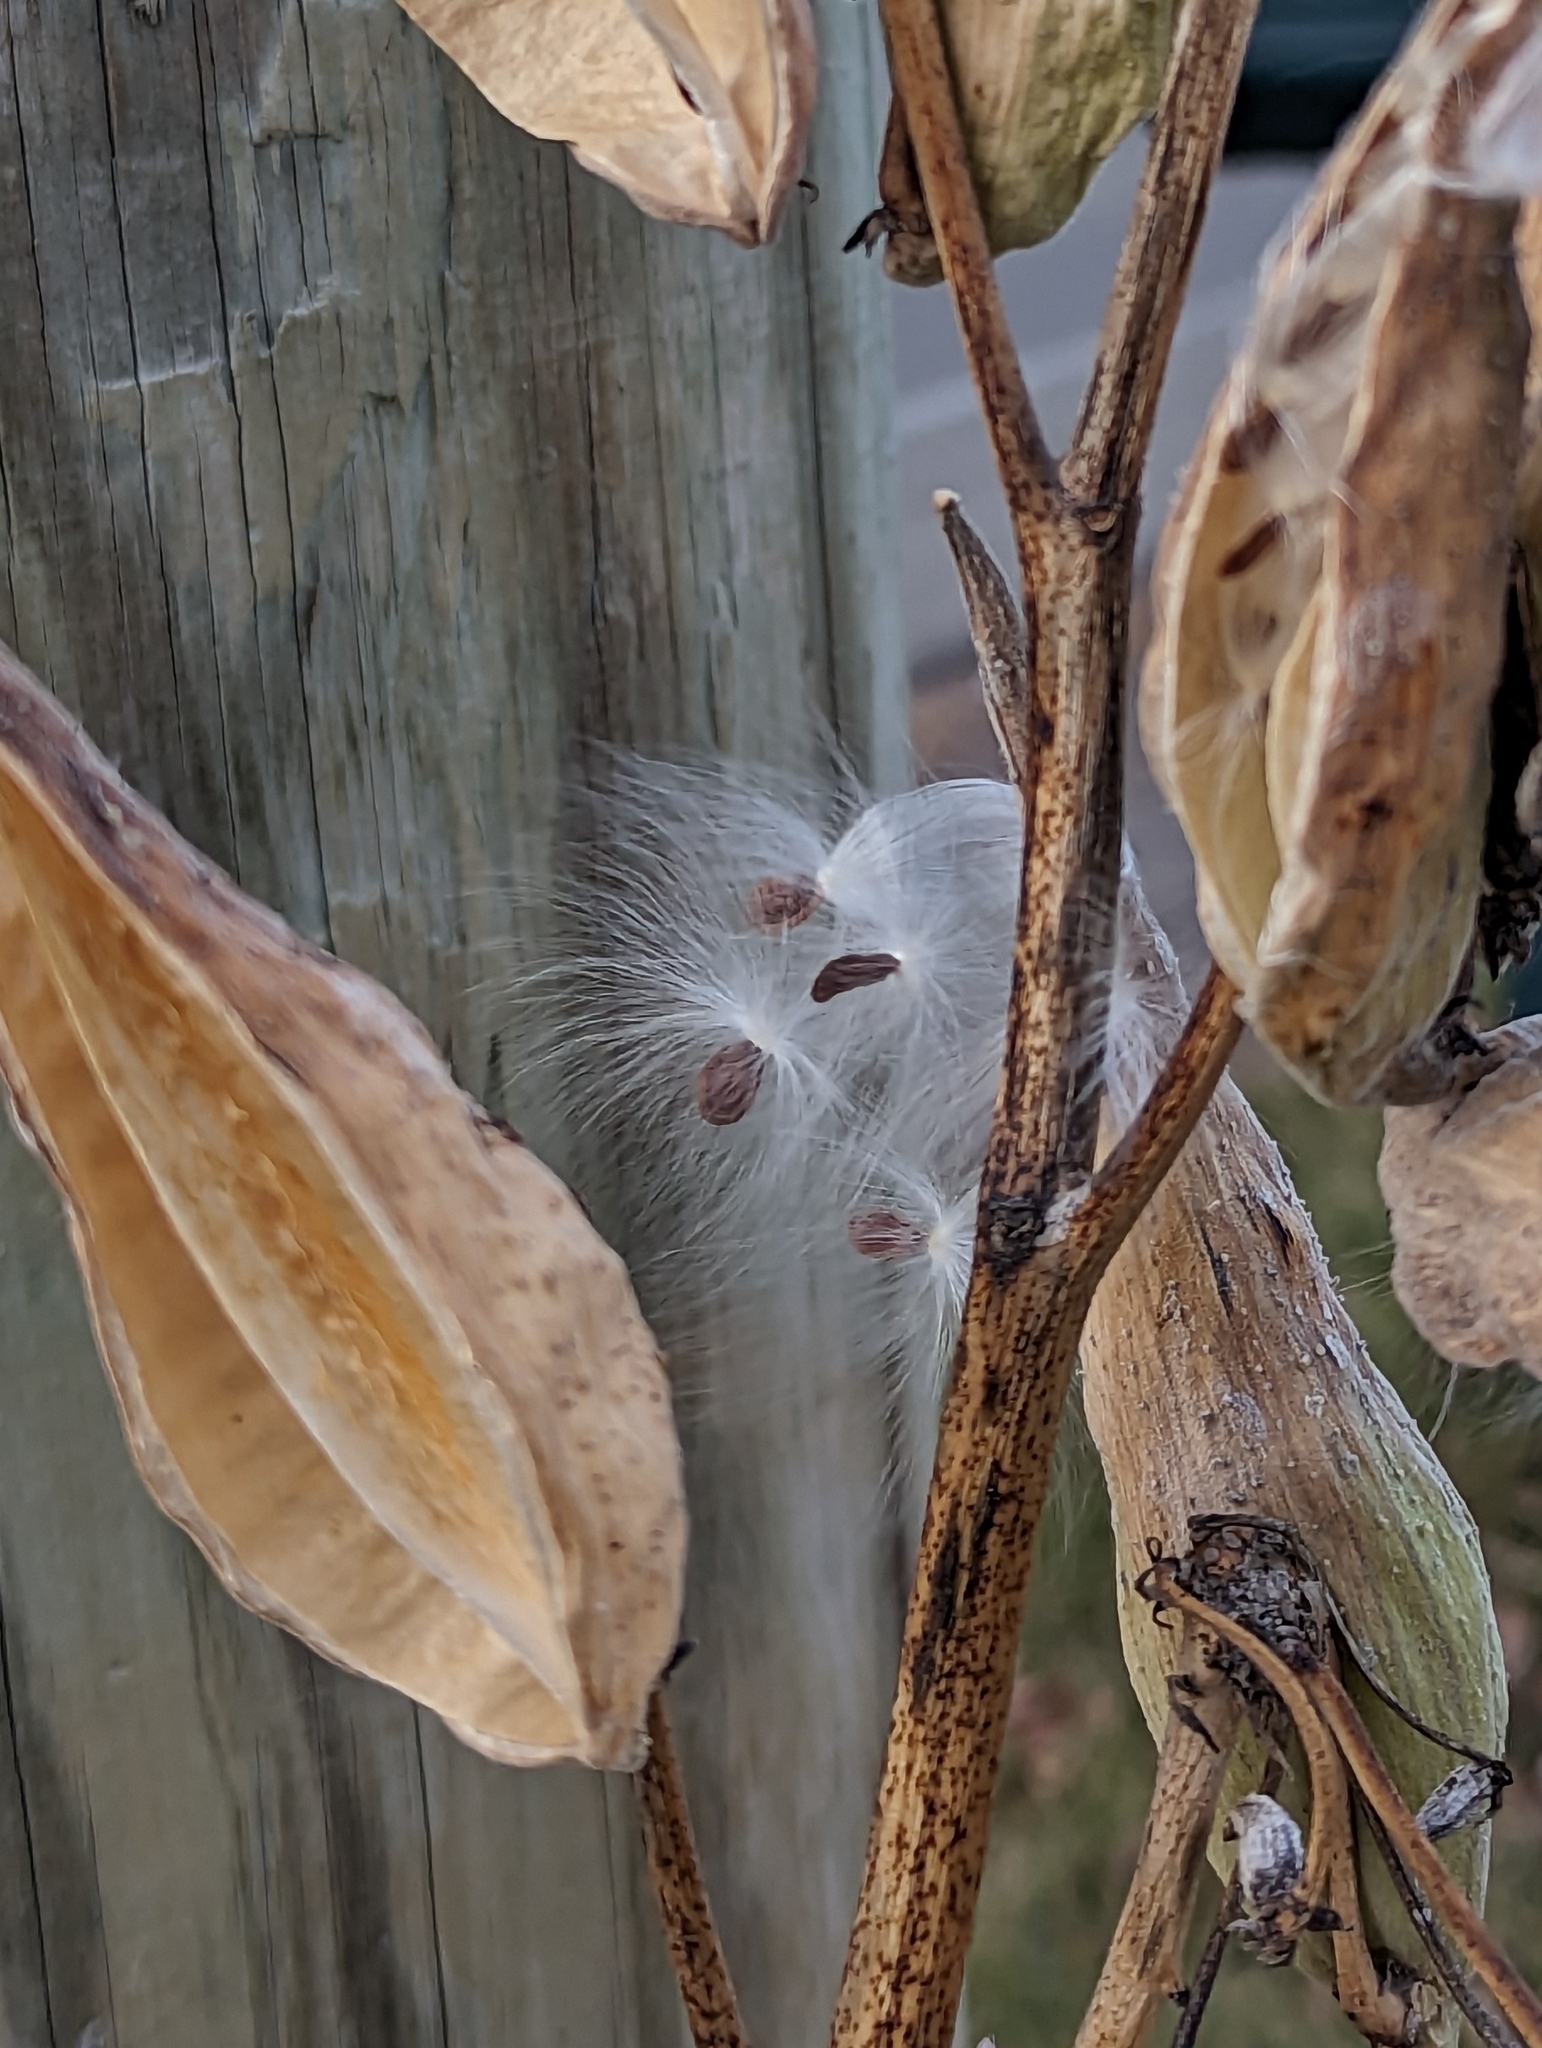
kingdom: Plantae
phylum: Tracheophyta
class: Magnoliopsida
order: Gentianales
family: Apocynaceae
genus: Asclepias
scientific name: Asclepias syriaca
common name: Common milkweed
